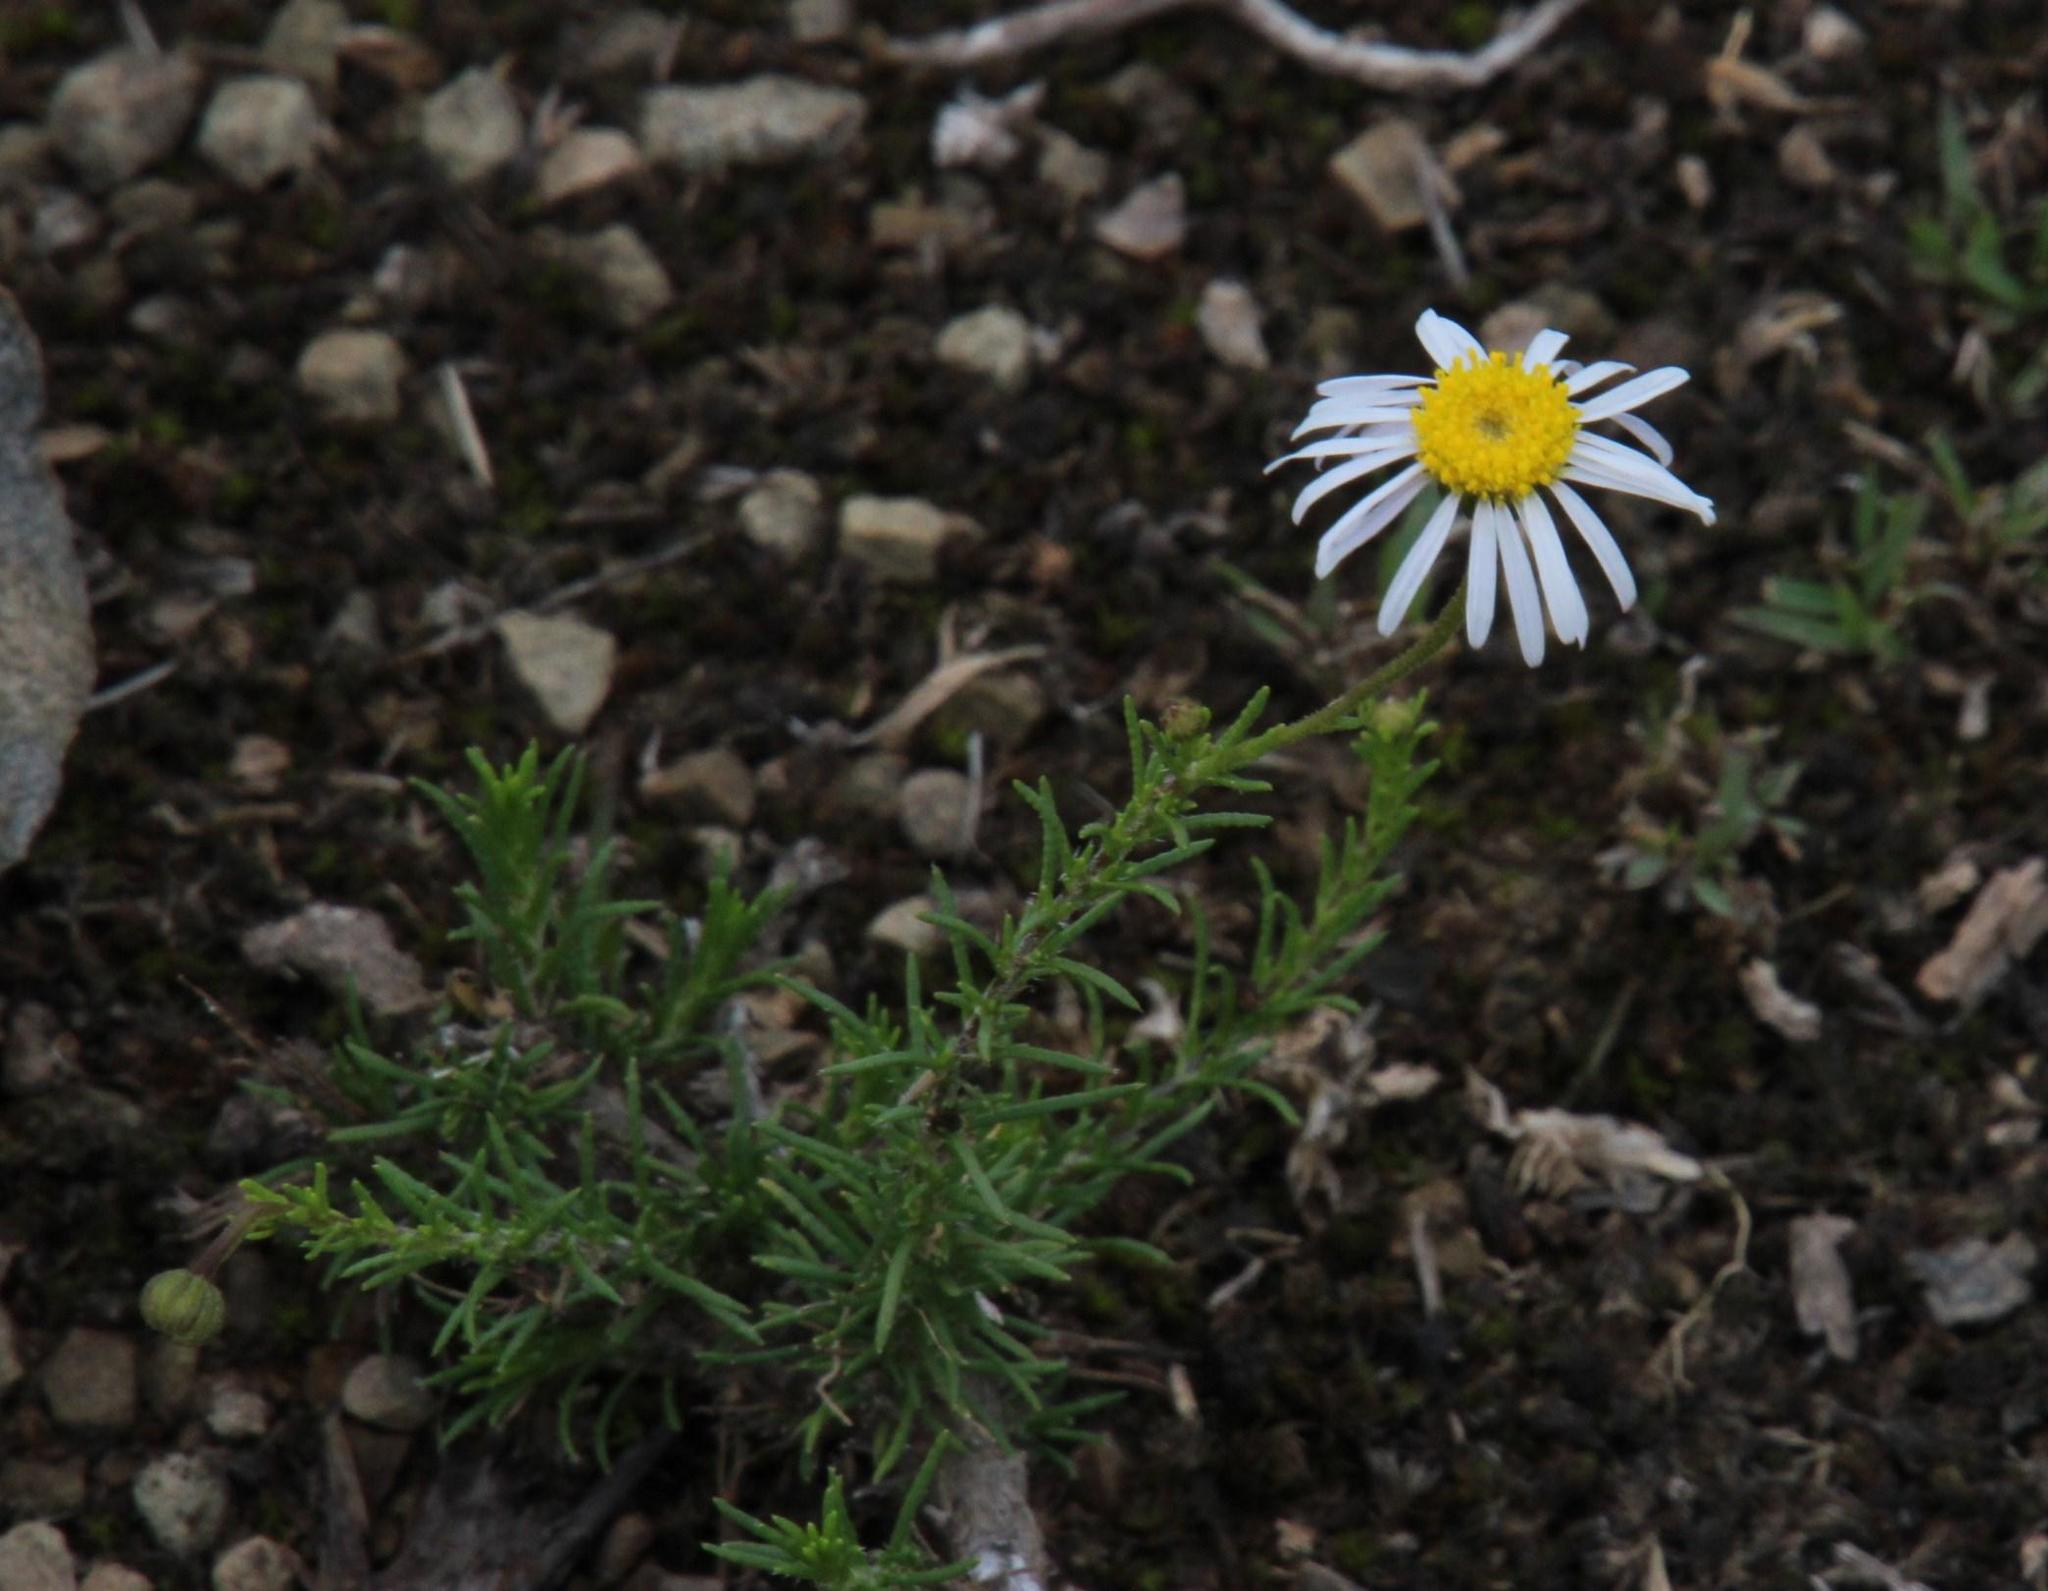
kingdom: Plantae
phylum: Tracheophyta
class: Magnoliopsida
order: Asterales
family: Asteraceae
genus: Felicia
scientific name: Felicia muricata
